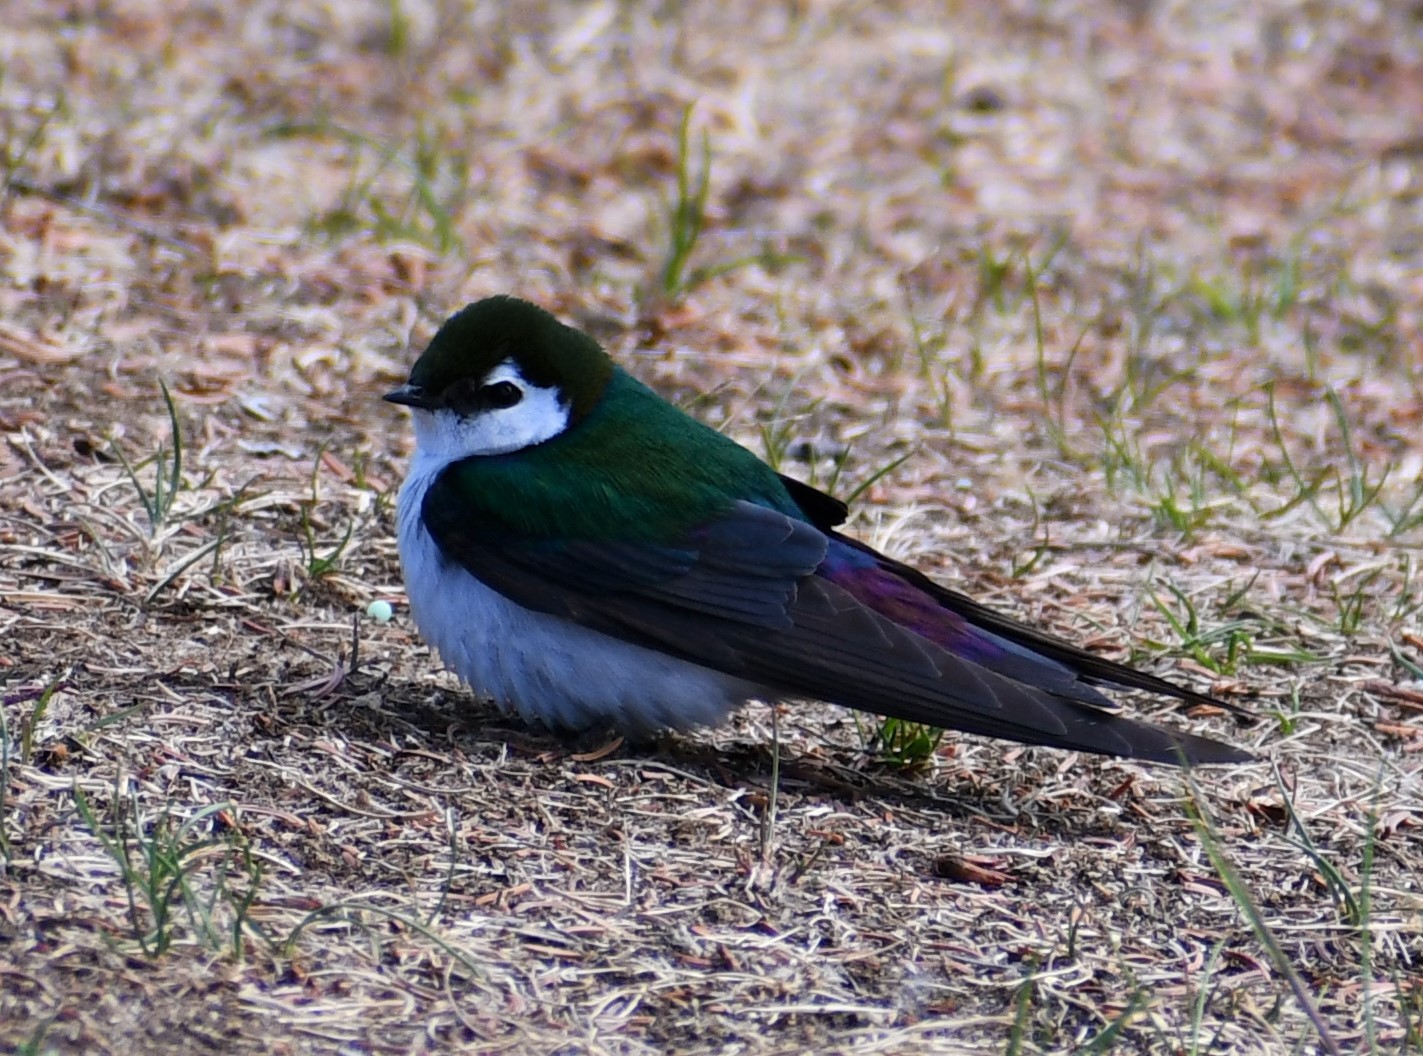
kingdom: Animalia
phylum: Chordata
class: Aves
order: Passeriformes
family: Hirundinidae
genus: Tachycineta
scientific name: Tachycineta thalassina
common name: Violet-green swallow
